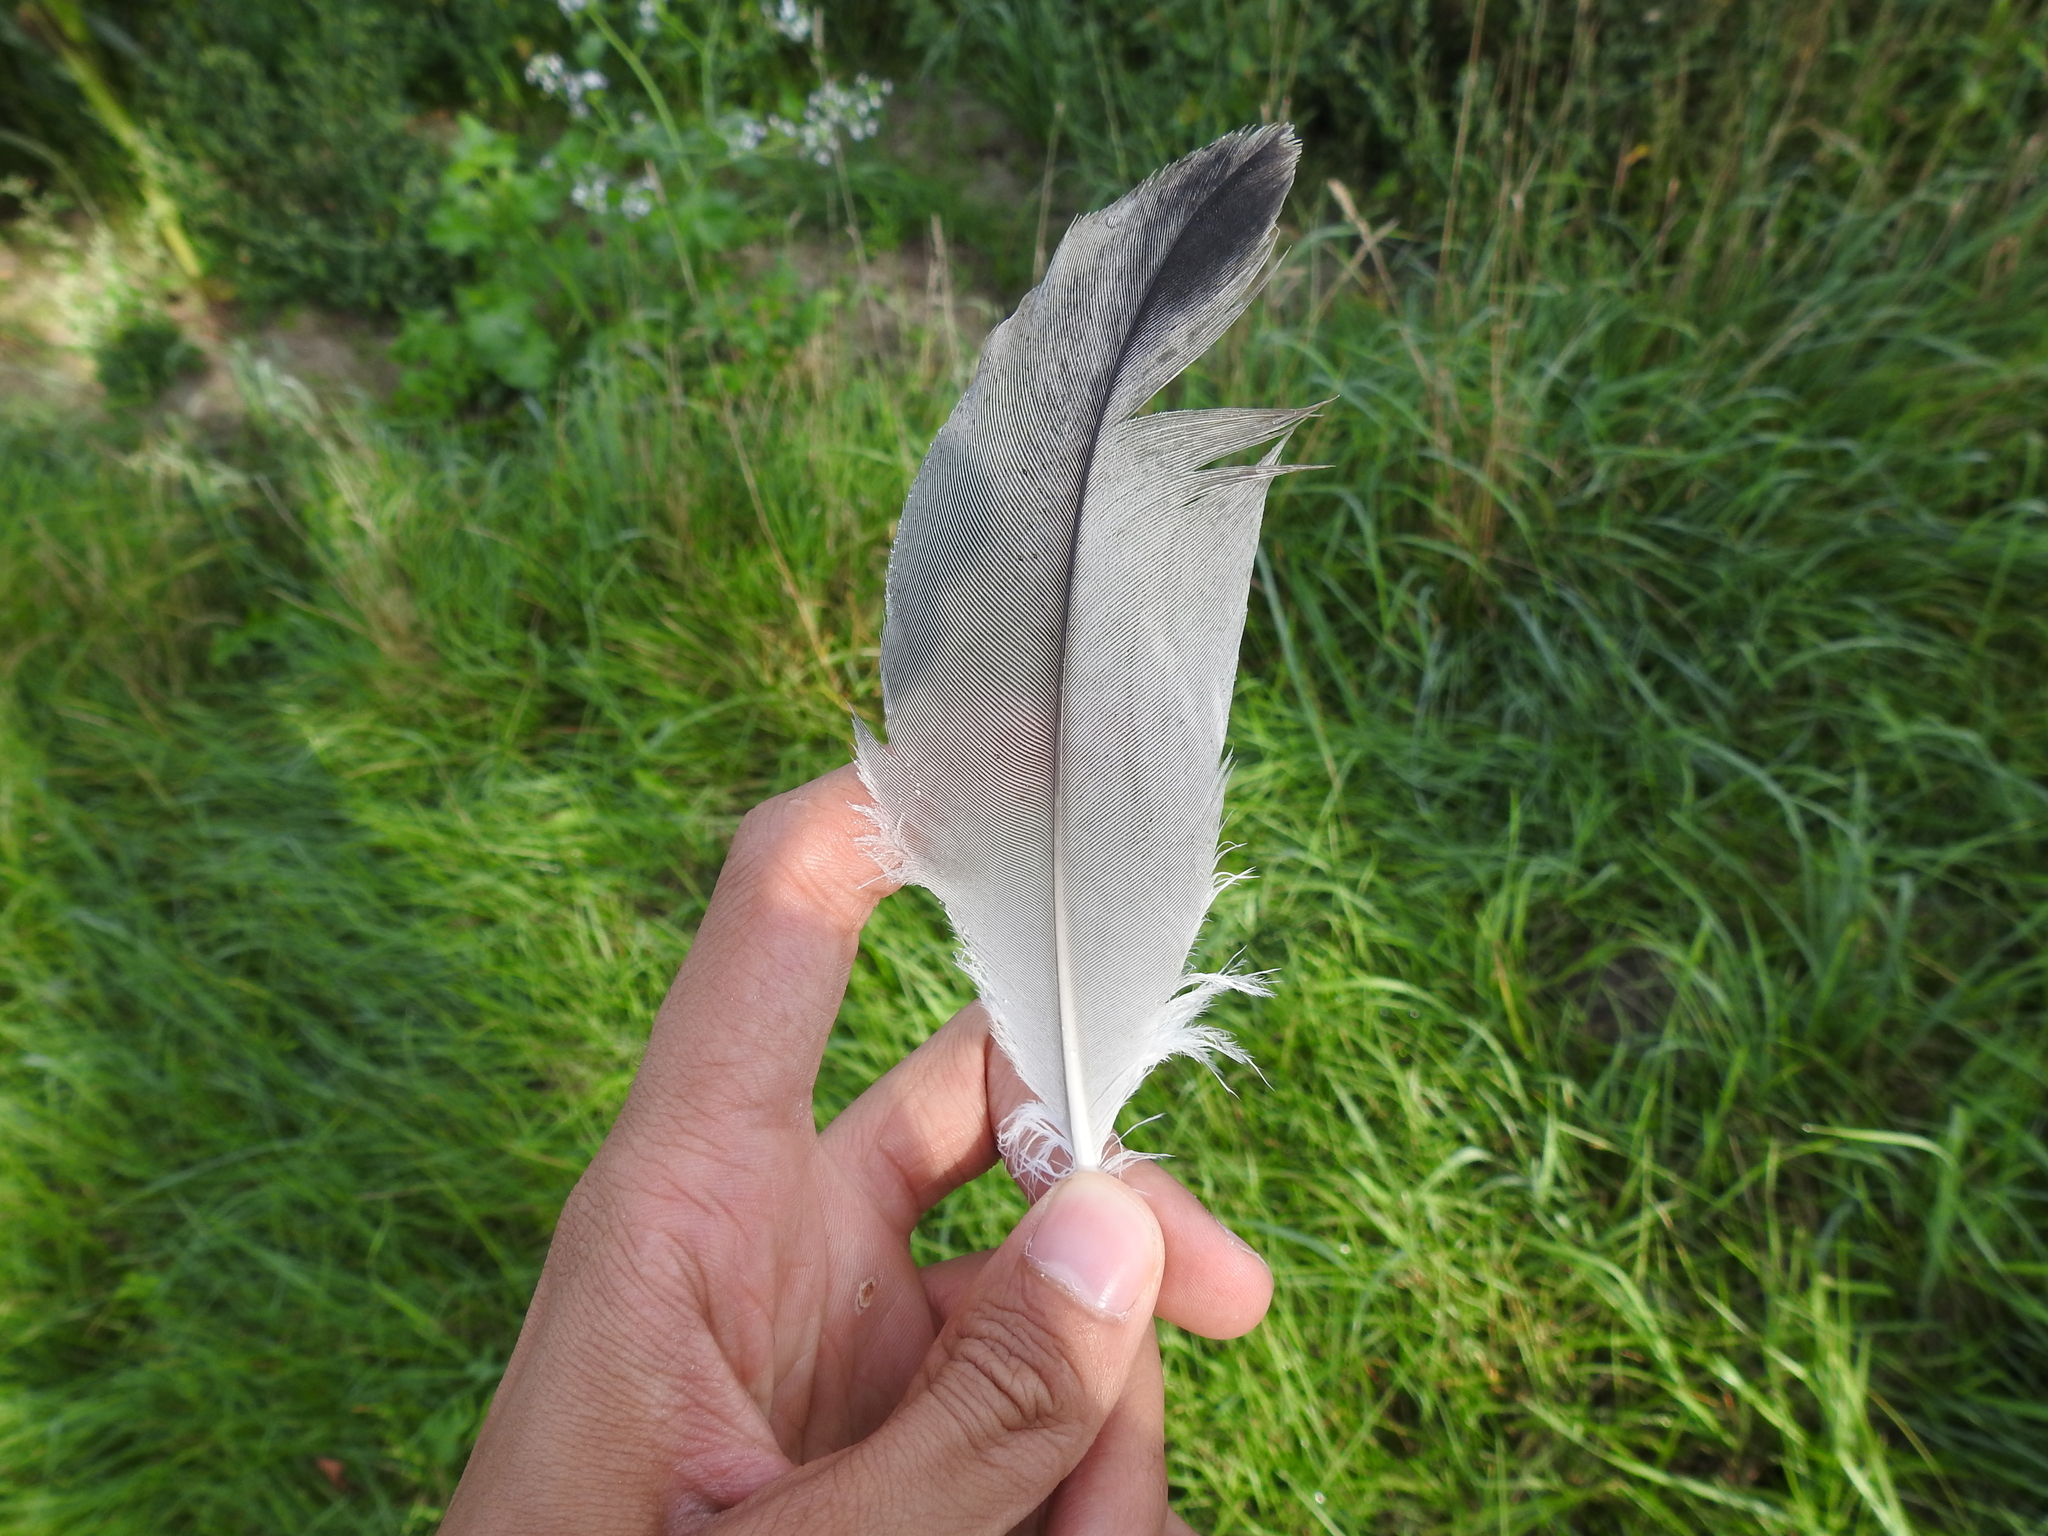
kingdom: Animalia
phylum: Chordata
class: Aves
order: Gruiformes
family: Gruidae
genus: Grus
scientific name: Grus grus
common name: Common crane
